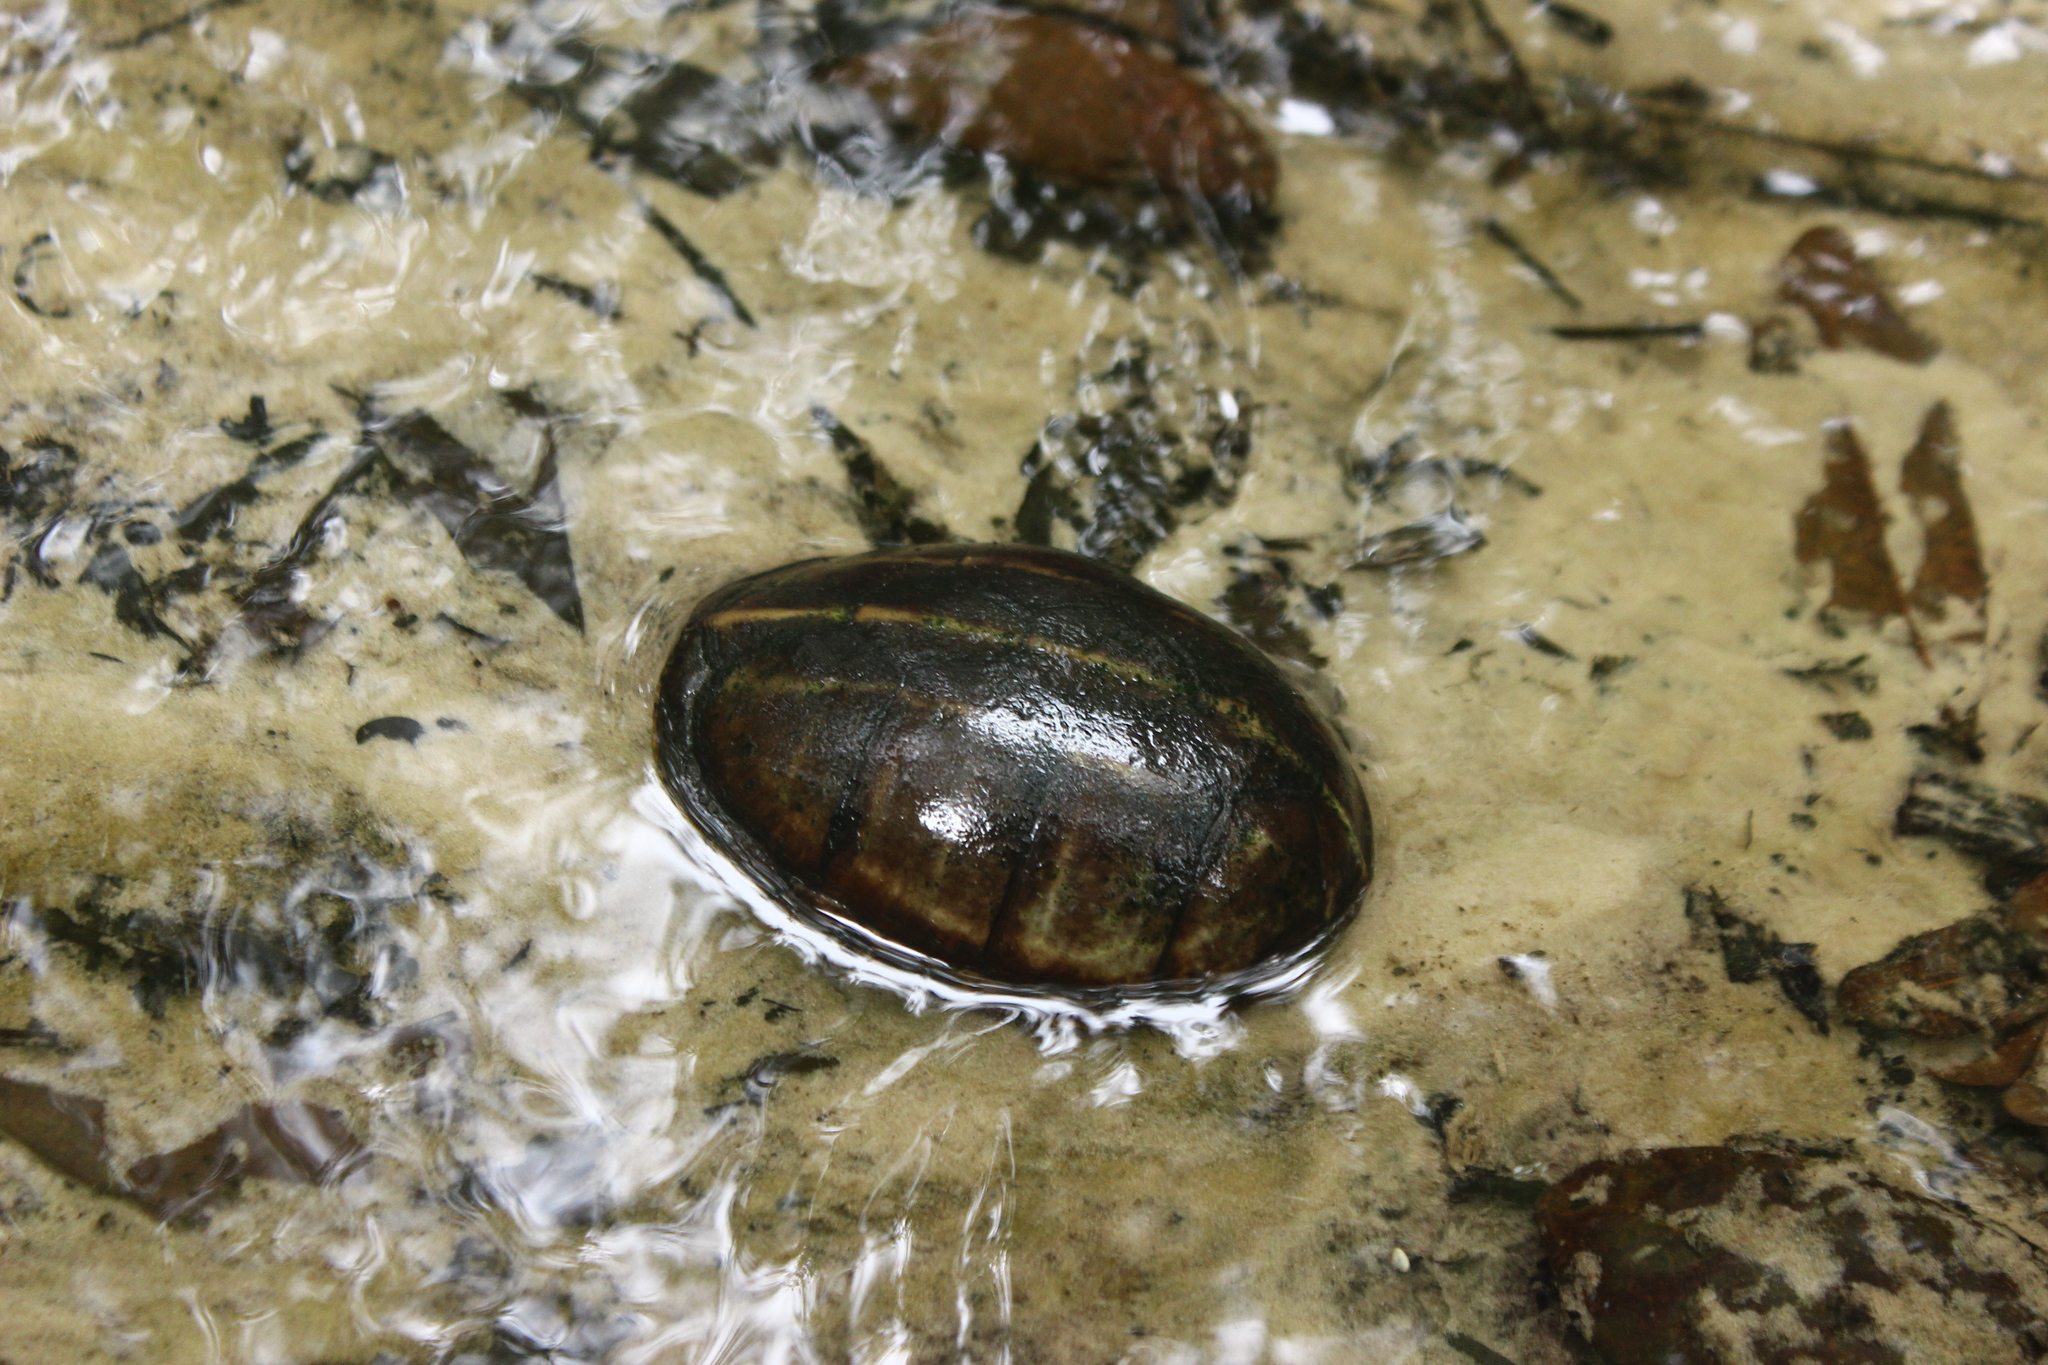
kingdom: Animalia
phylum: Chordata
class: Testudines
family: Kinosternidae
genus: Kinosternon
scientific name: Kinosternon baurii
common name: Striped mud turtle
